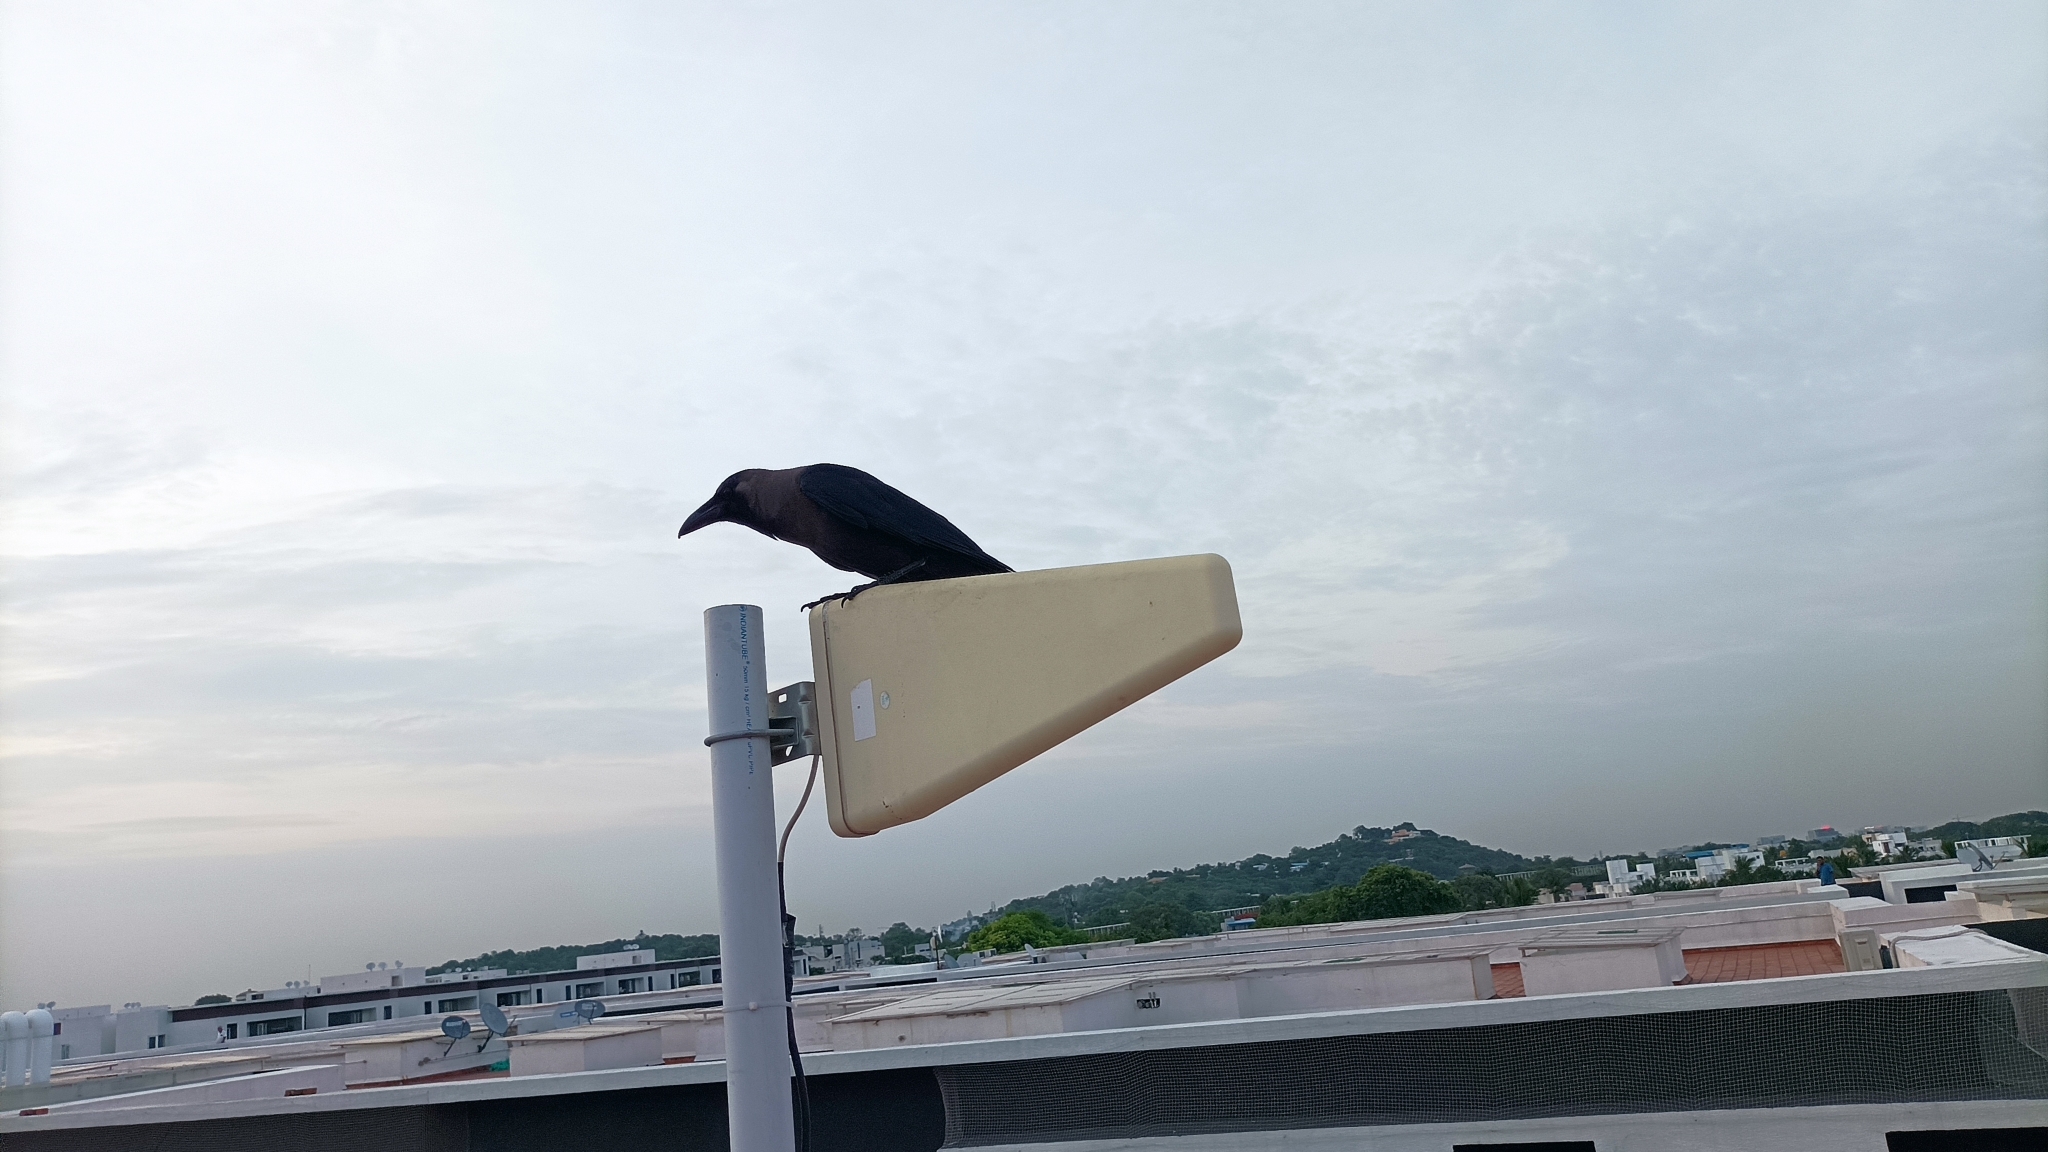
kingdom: Animalia
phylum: Chordata
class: Aves
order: Passeriformes
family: Corvidae
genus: Corvus
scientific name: Corvus splendens
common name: House crow
